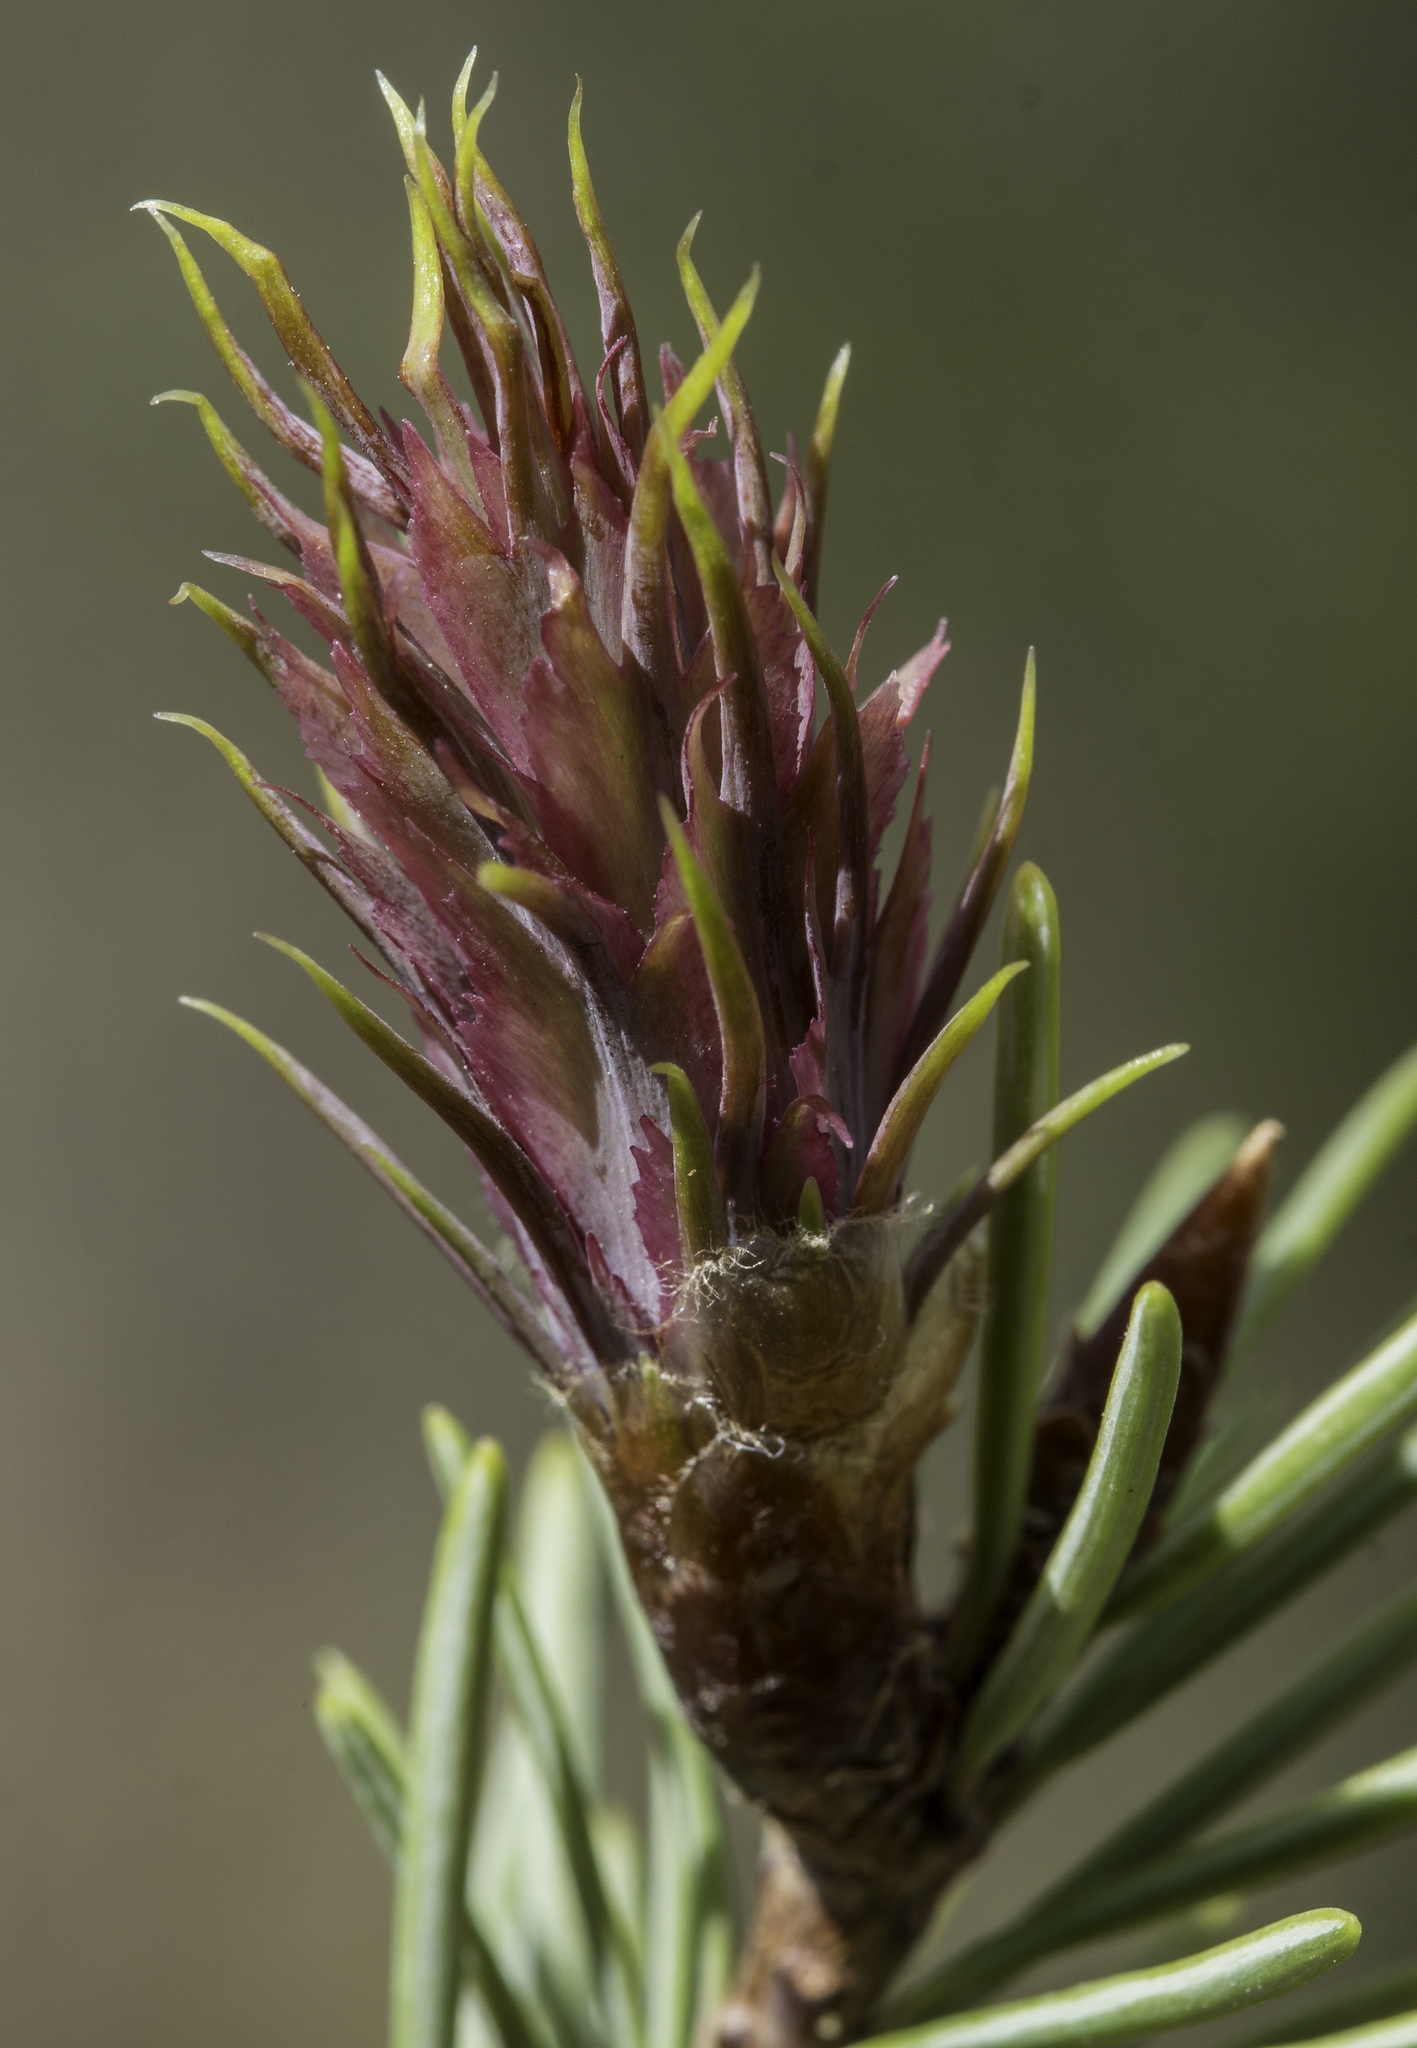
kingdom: Plantae
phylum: Tracheophyta
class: Pinopsida
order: Pinales
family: Pinaceae
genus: Pseudotsuga
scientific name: Pseudotsuga menziesii
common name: Douglas fir
